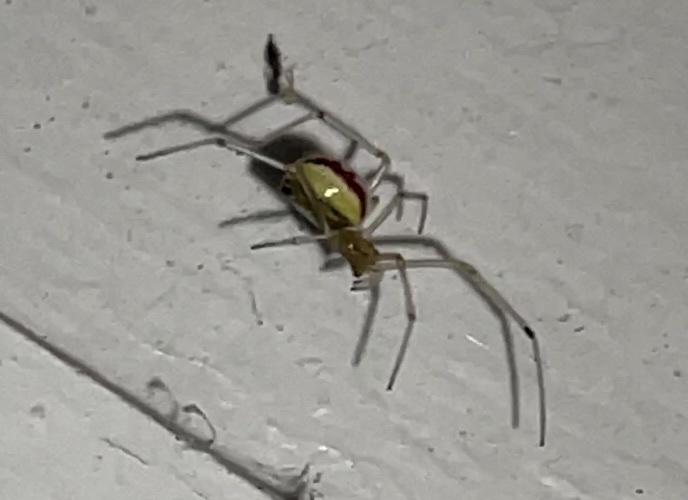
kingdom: Animalia
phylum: Arthropoda
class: Arachnida
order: Araneae
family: Theridiidae
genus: Enoplognatha
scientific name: Enoplognatha ovata
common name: Common candy-striped spider
